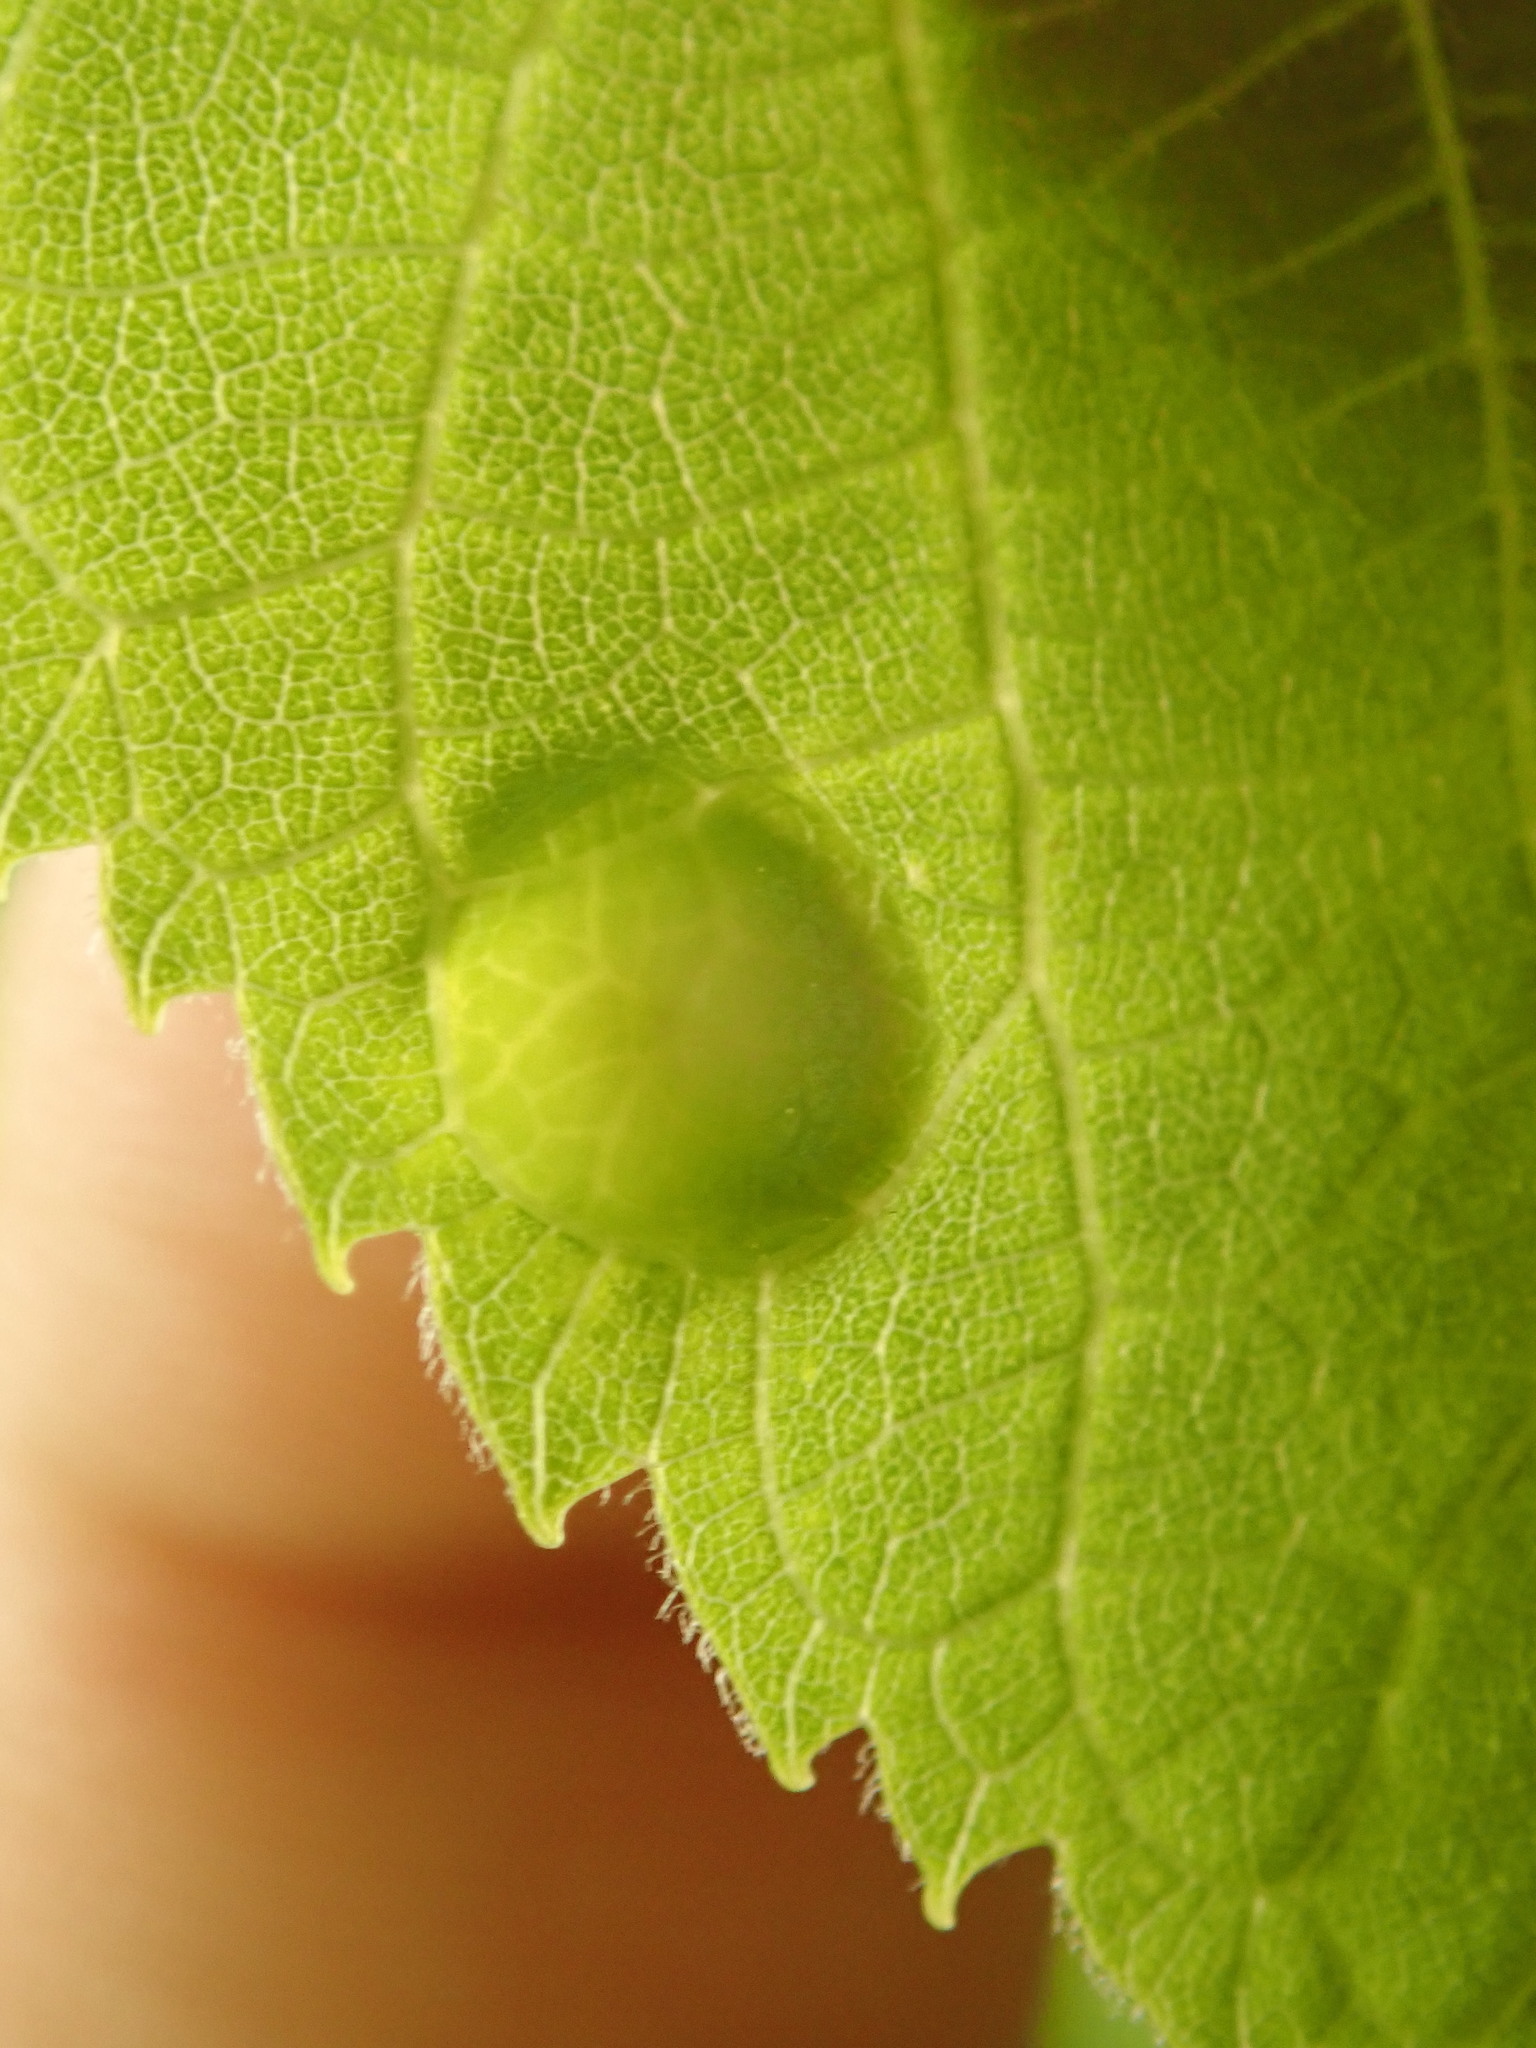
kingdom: Animalia
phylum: Arthropoda
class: Insecta
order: Hemiptera
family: Aphalaridae
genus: Pachypsylla
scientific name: Pachypsylla celtidisumbilicus
